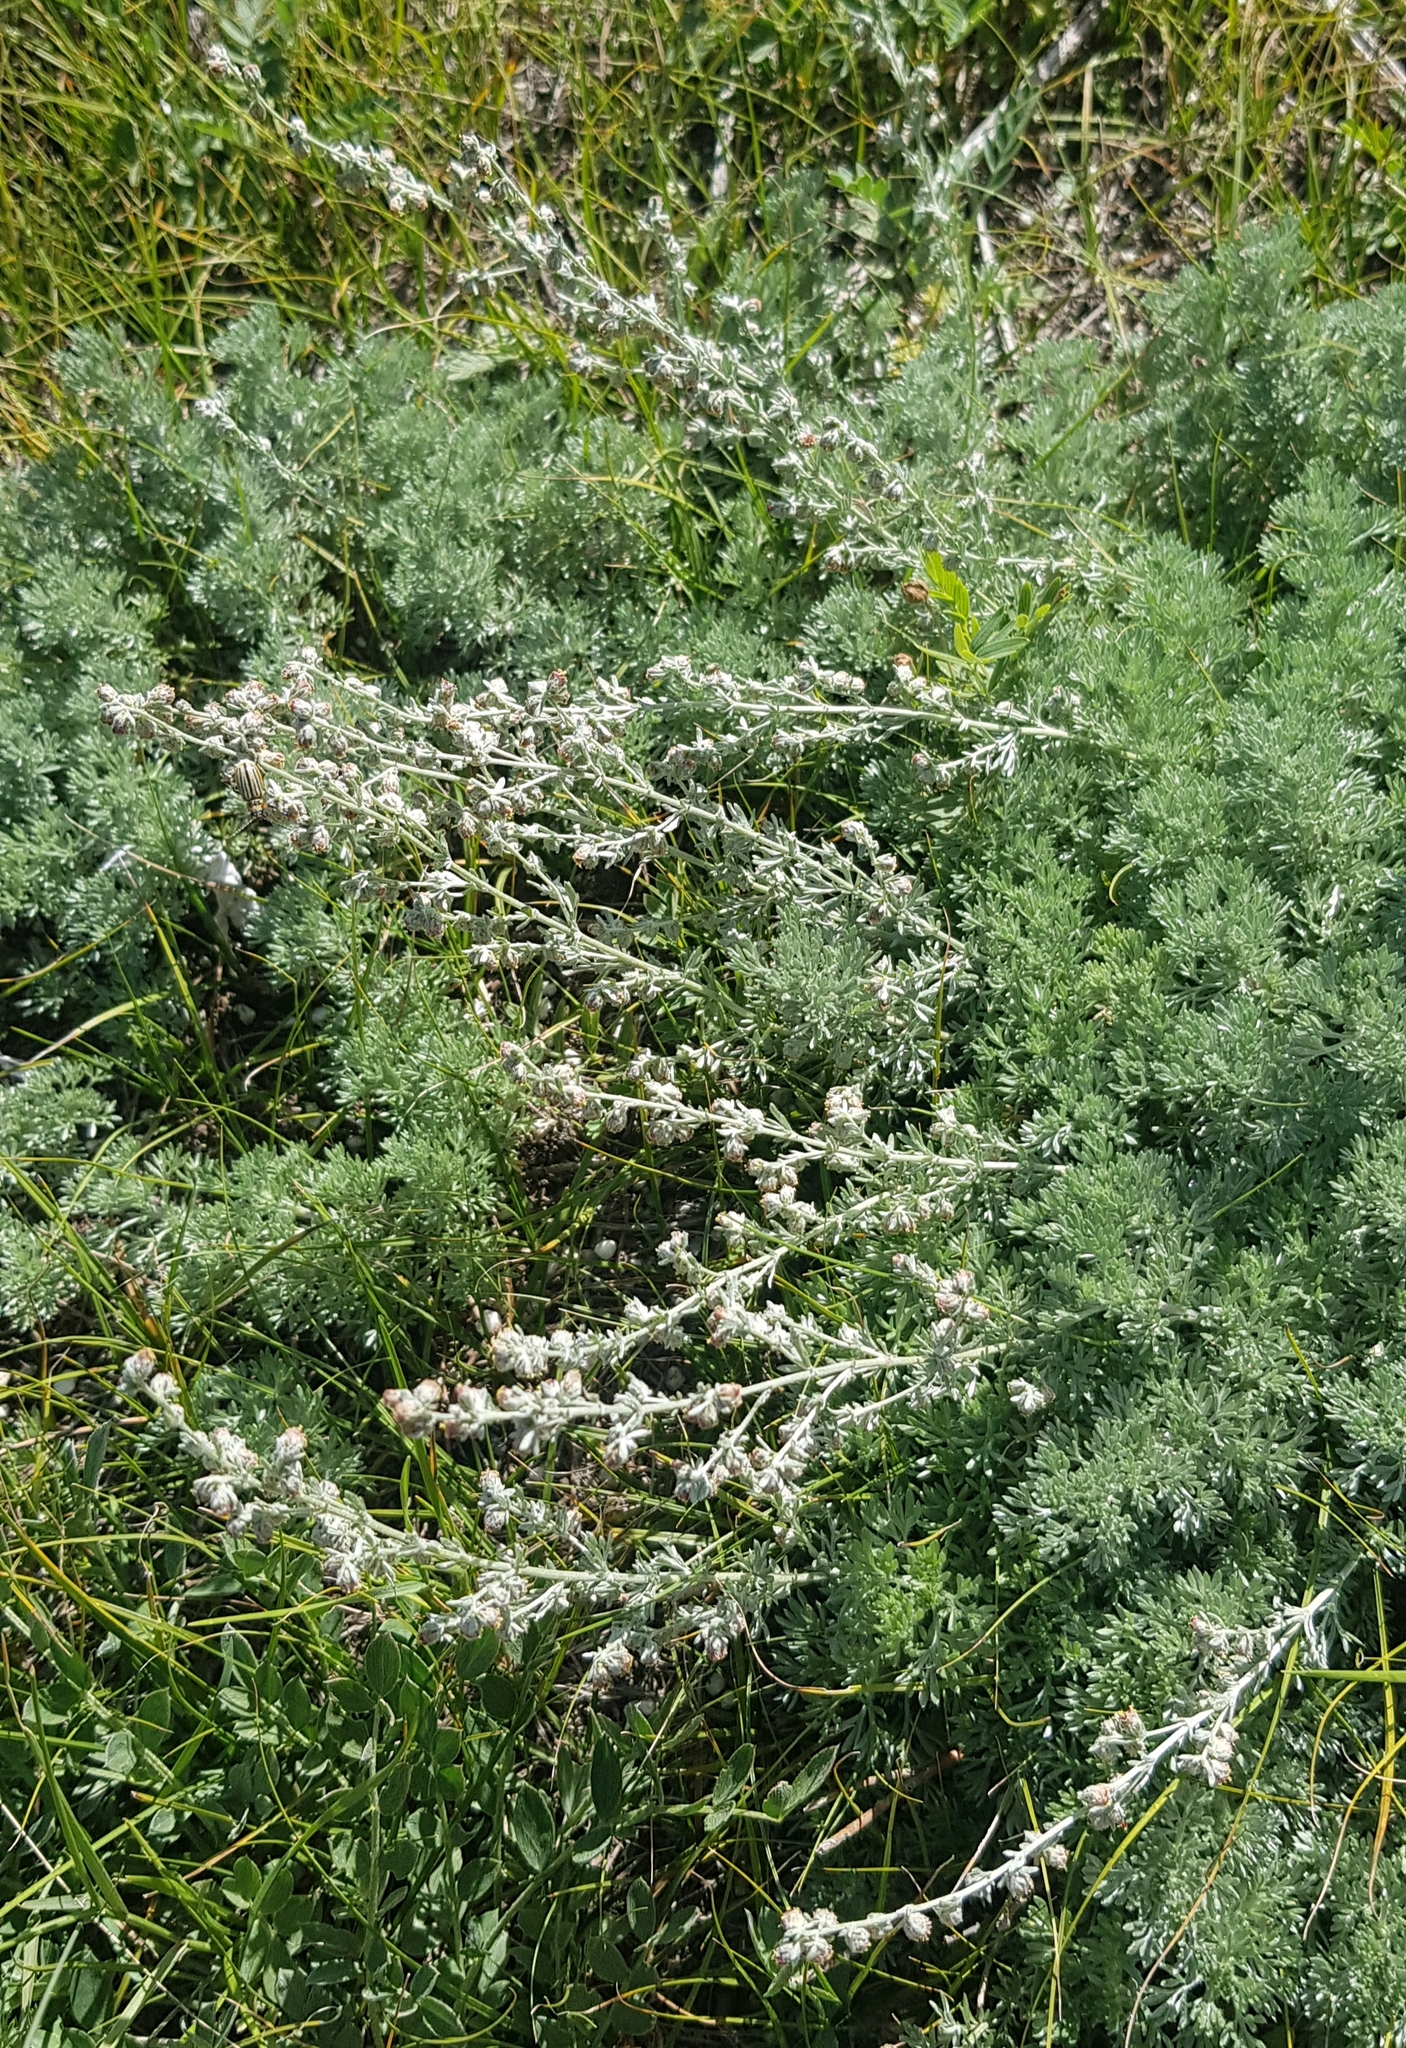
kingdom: Plantae
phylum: Tracheophyta
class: Magnoliopsida
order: Asterales
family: Asteraceae
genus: Artemisia
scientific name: Artemisia frigida
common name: Prairie sagewort
